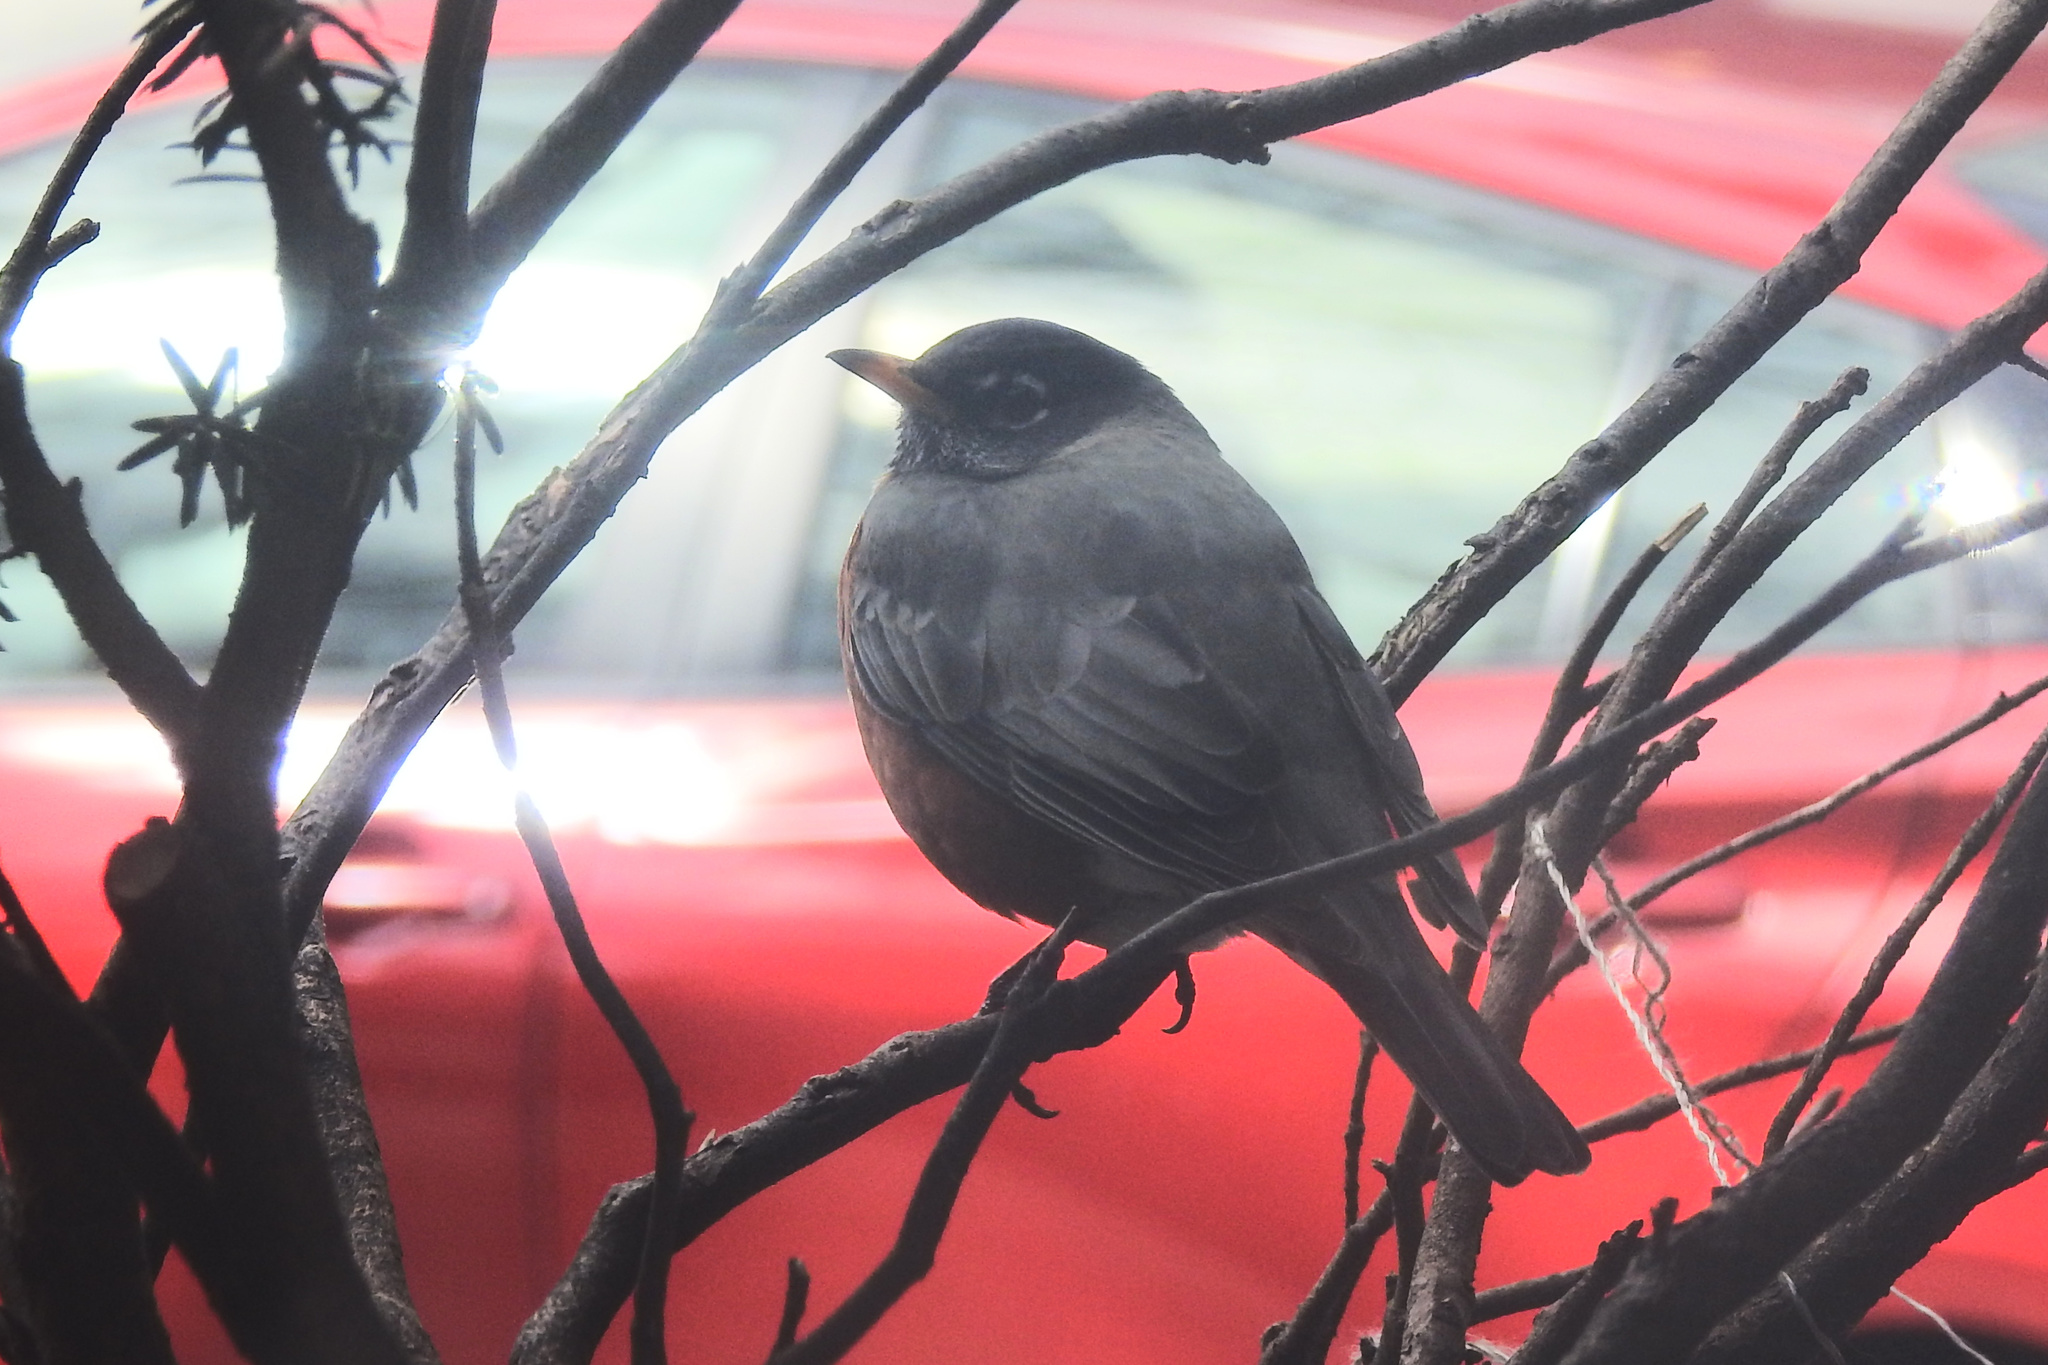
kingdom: Animalia
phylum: Chordata
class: Aves
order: Passeriformes
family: Turdidae
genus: Turdus
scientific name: Turdus migratorius
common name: American robin
